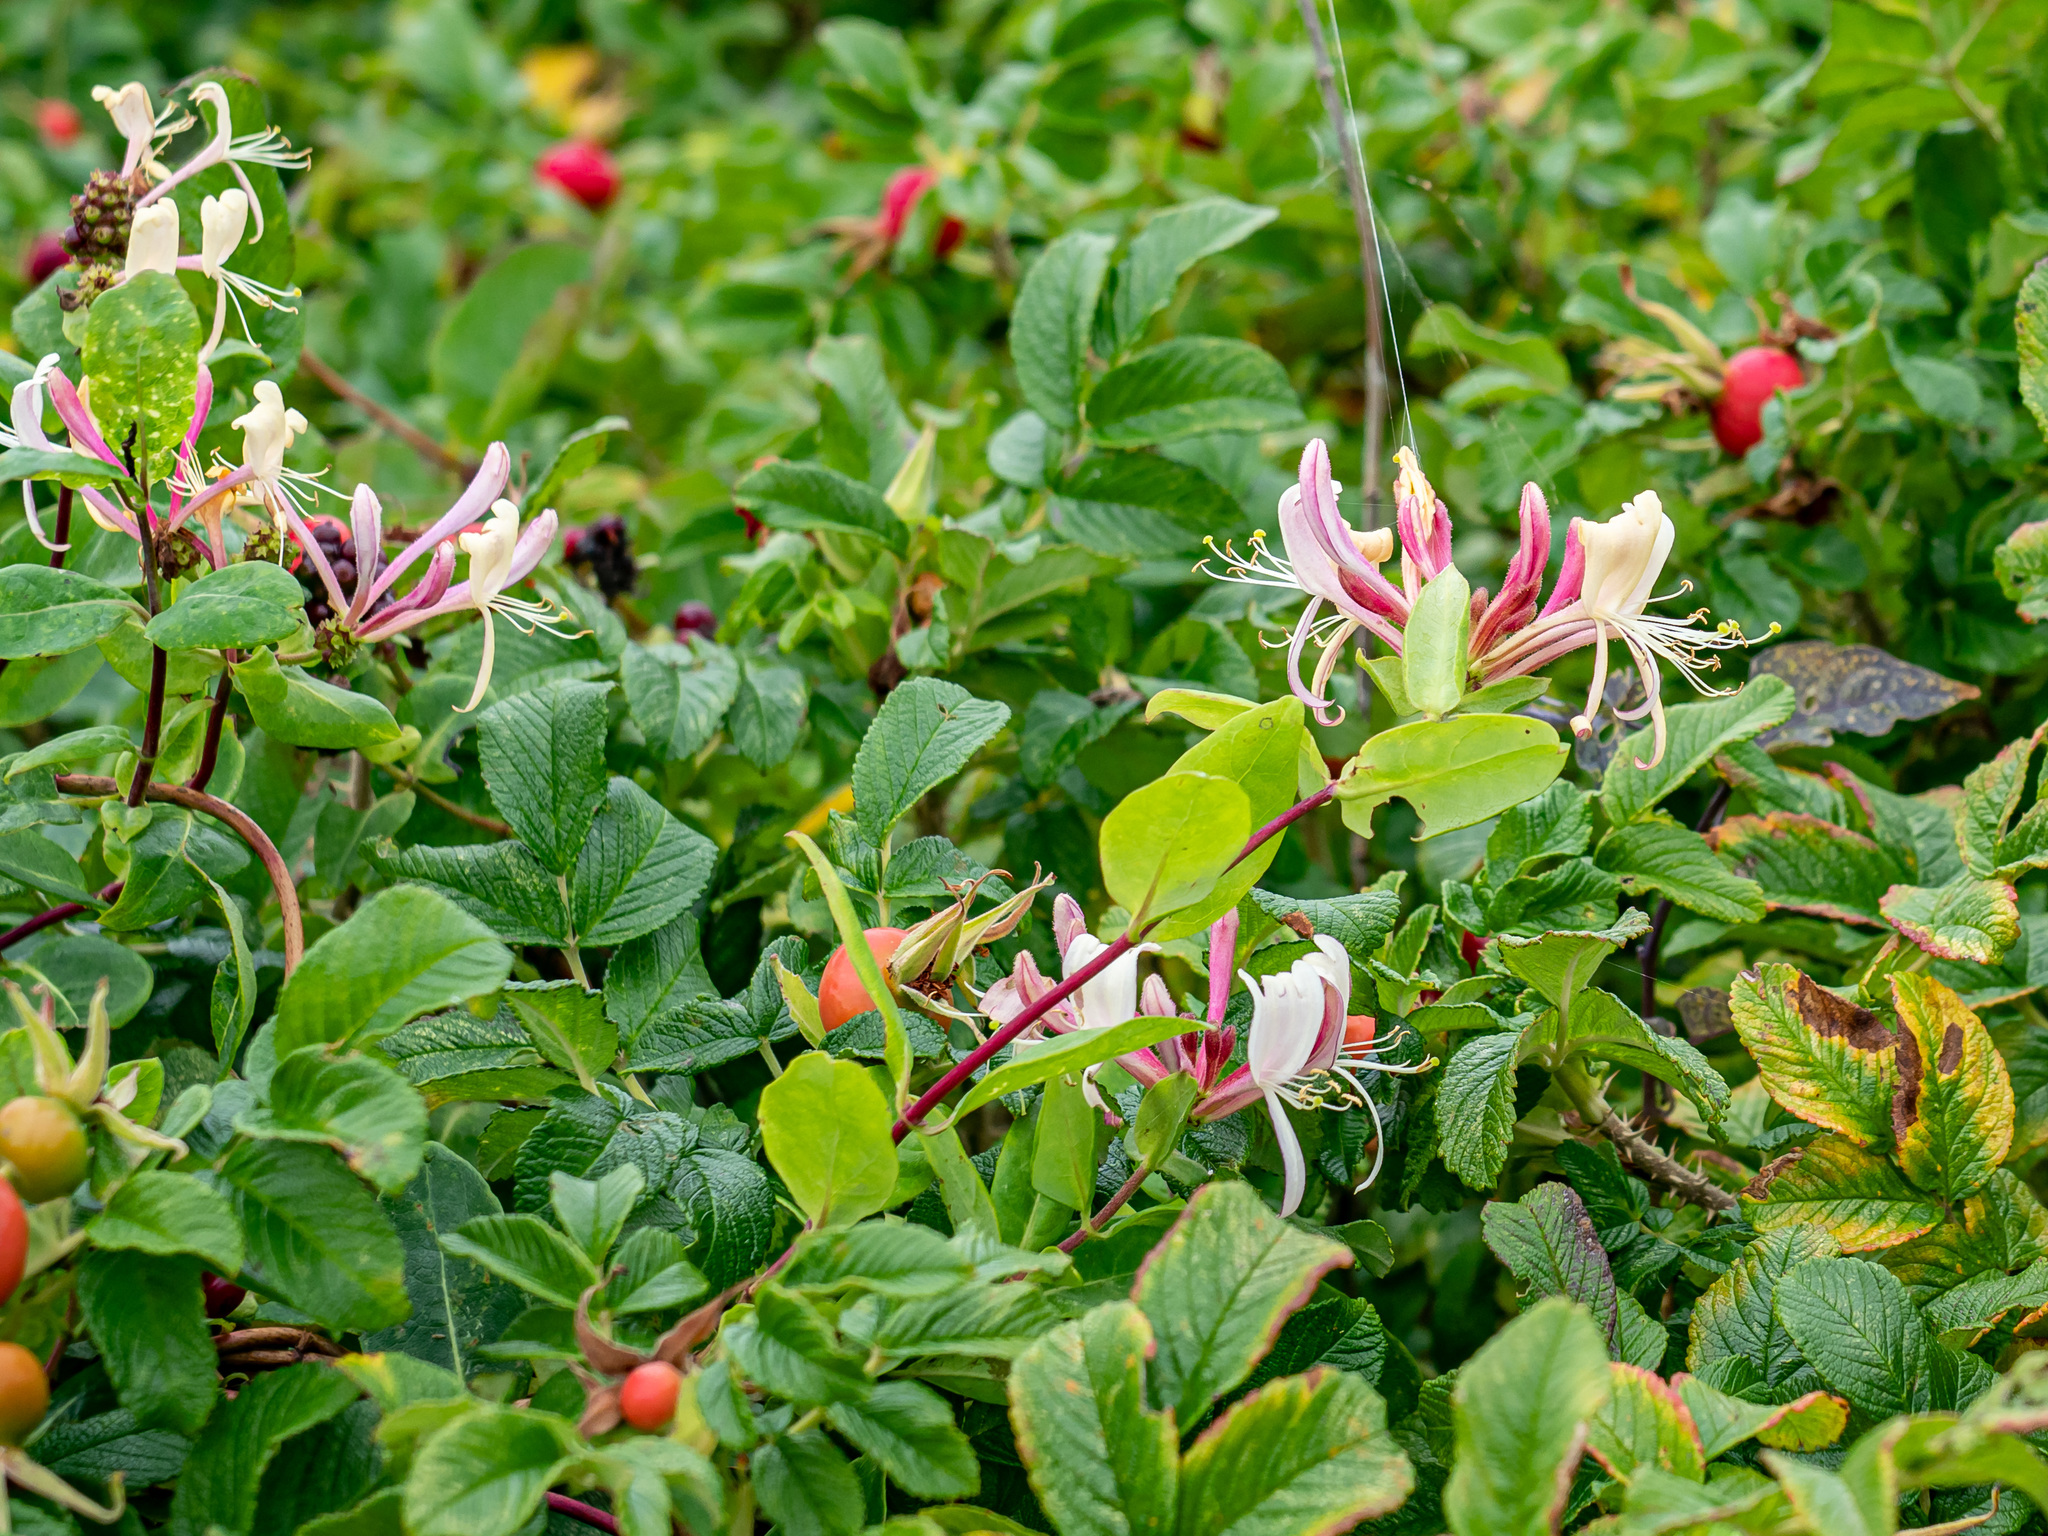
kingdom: Plantae
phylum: Tracheophyta
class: Magnoliopsida
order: Dipsacales
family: Caprifoliaceae
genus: Lonicera
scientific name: Lonicera periclymenum
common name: European honeysuckle
